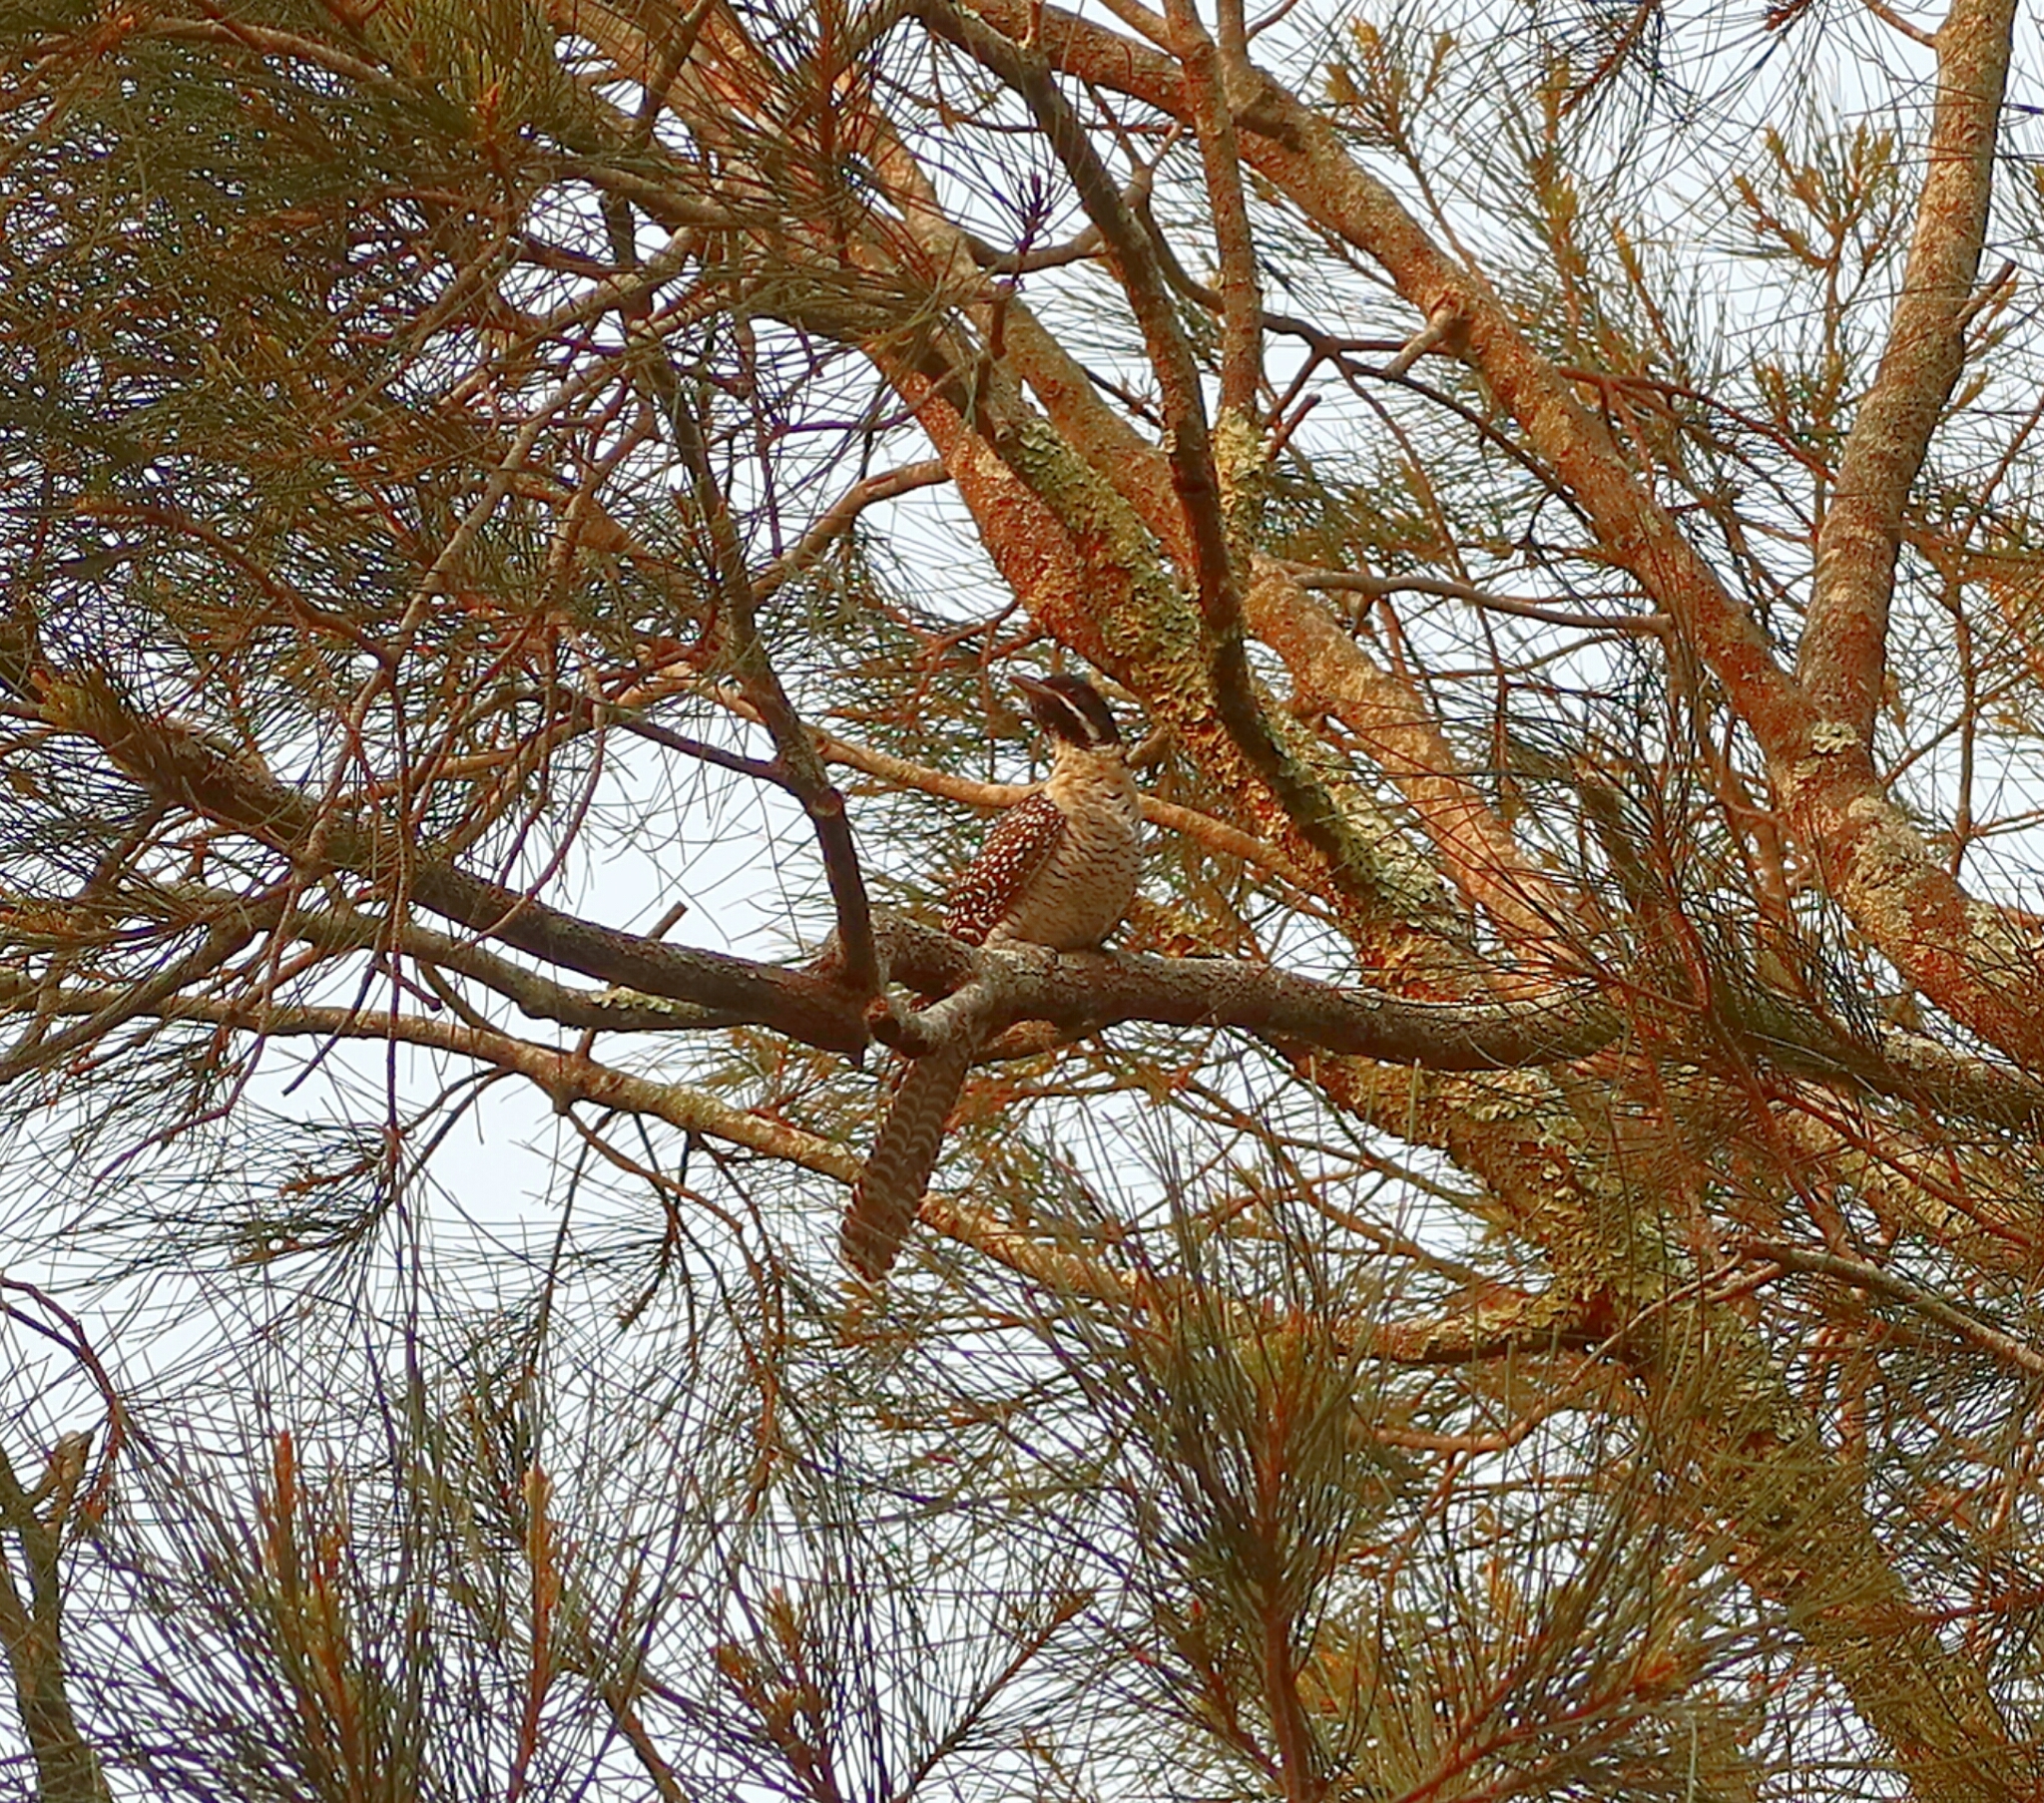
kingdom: Animalia
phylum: Chordata
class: Aves
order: Cuculiformes
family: Cuculidae
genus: Eudynamys
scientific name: Eudynamys orientalis
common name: Pacific koel
